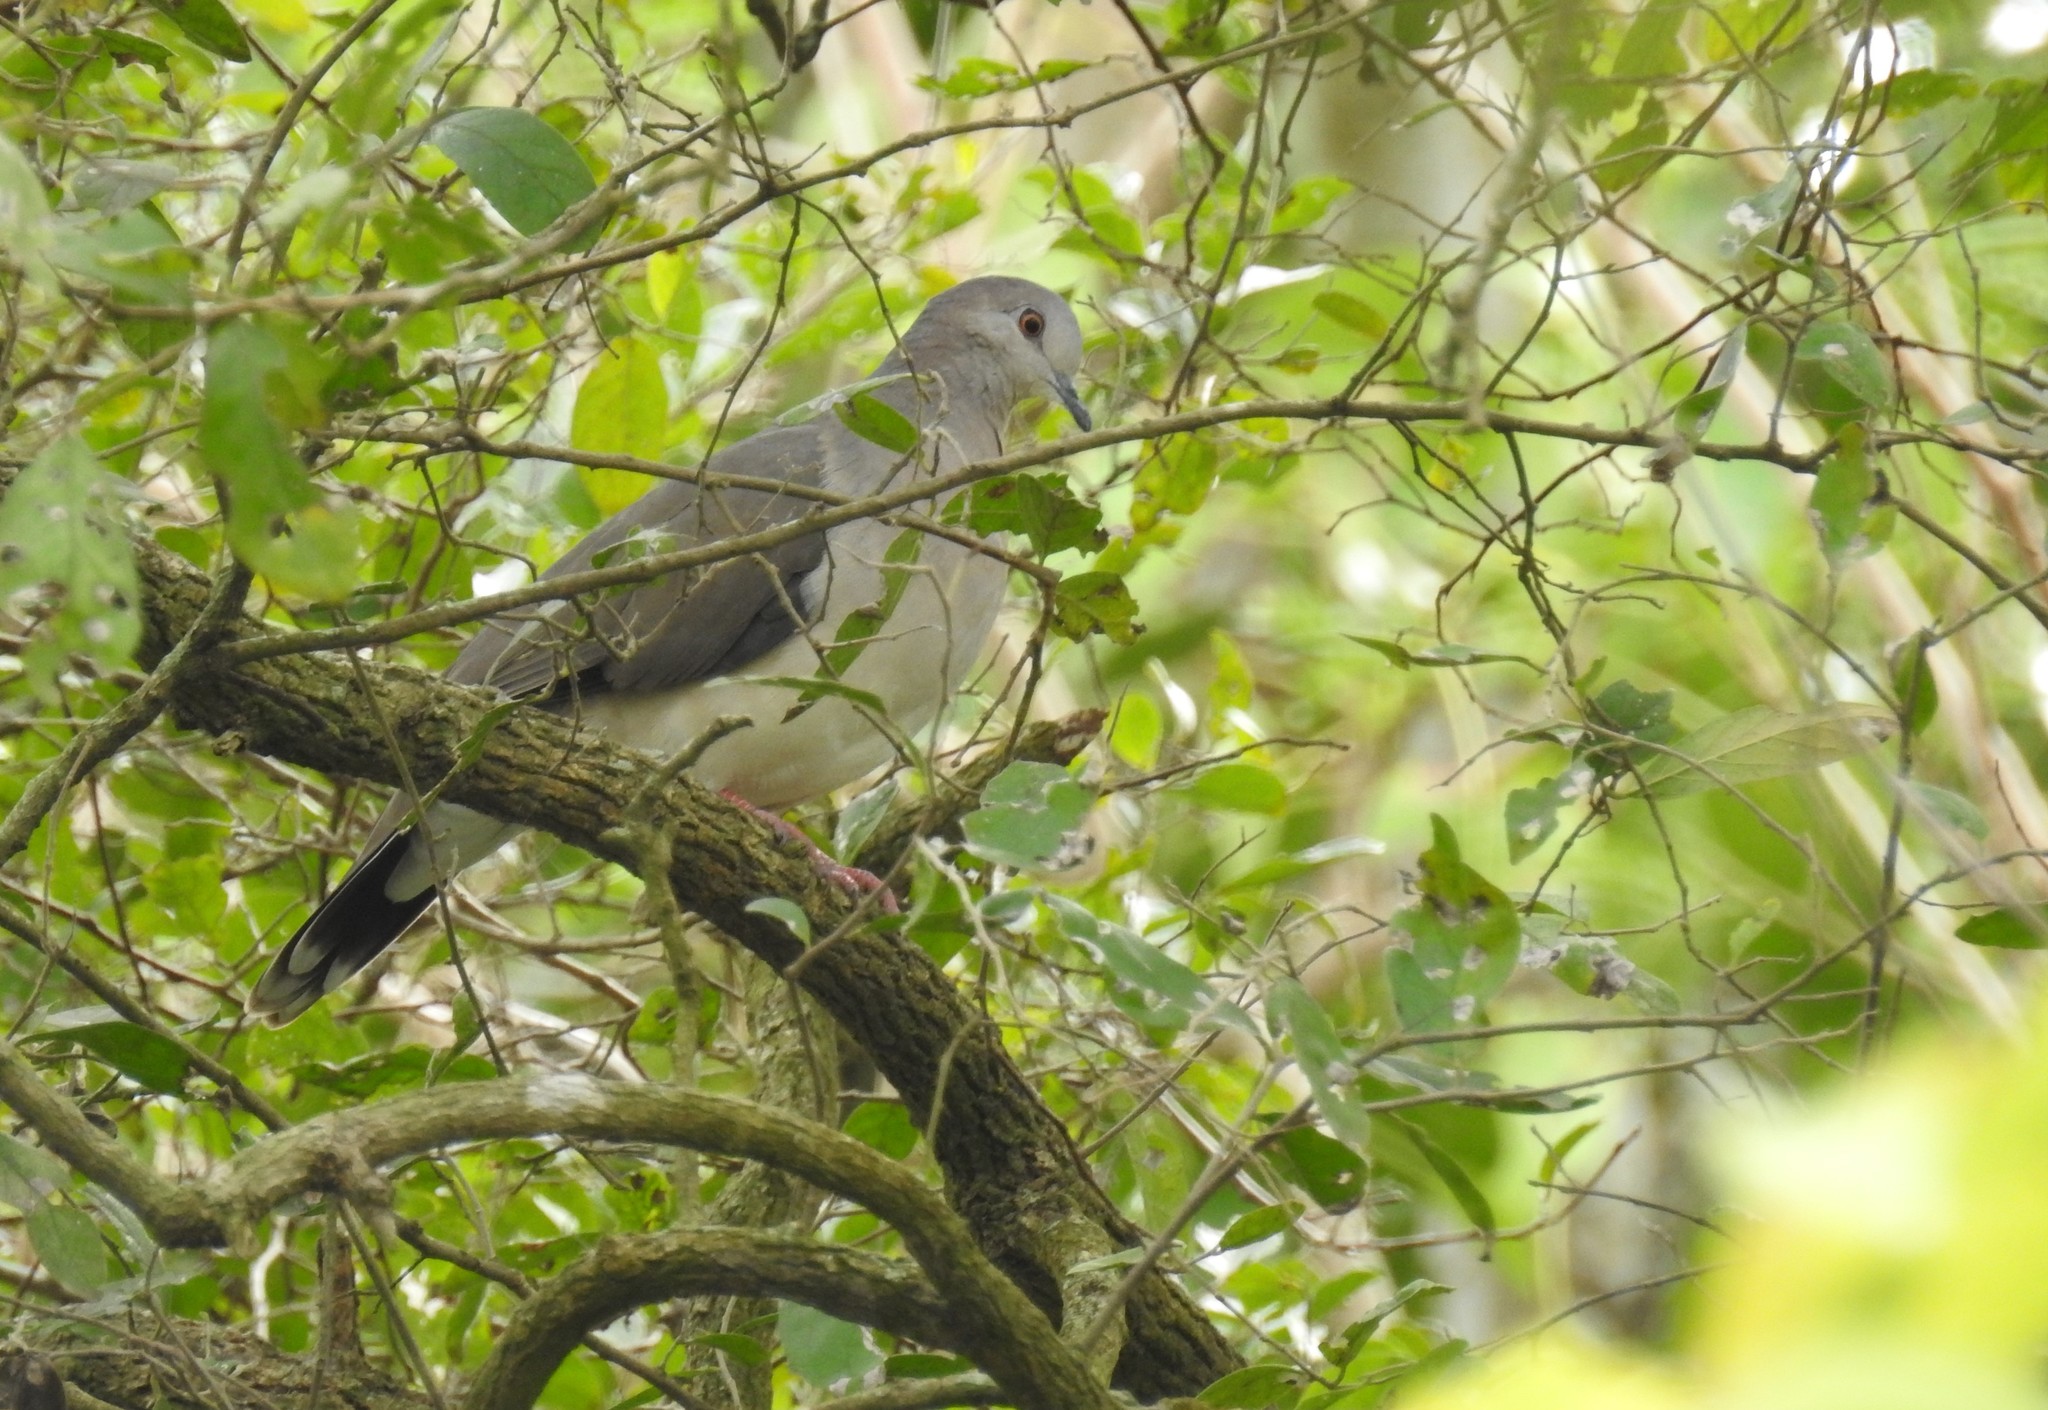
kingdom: Animalia
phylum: Chordata
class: Aves
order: Columbiformes
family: Columbidae
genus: Leptotila
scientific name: Leptotila verreauxi
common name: White-tipped dove
